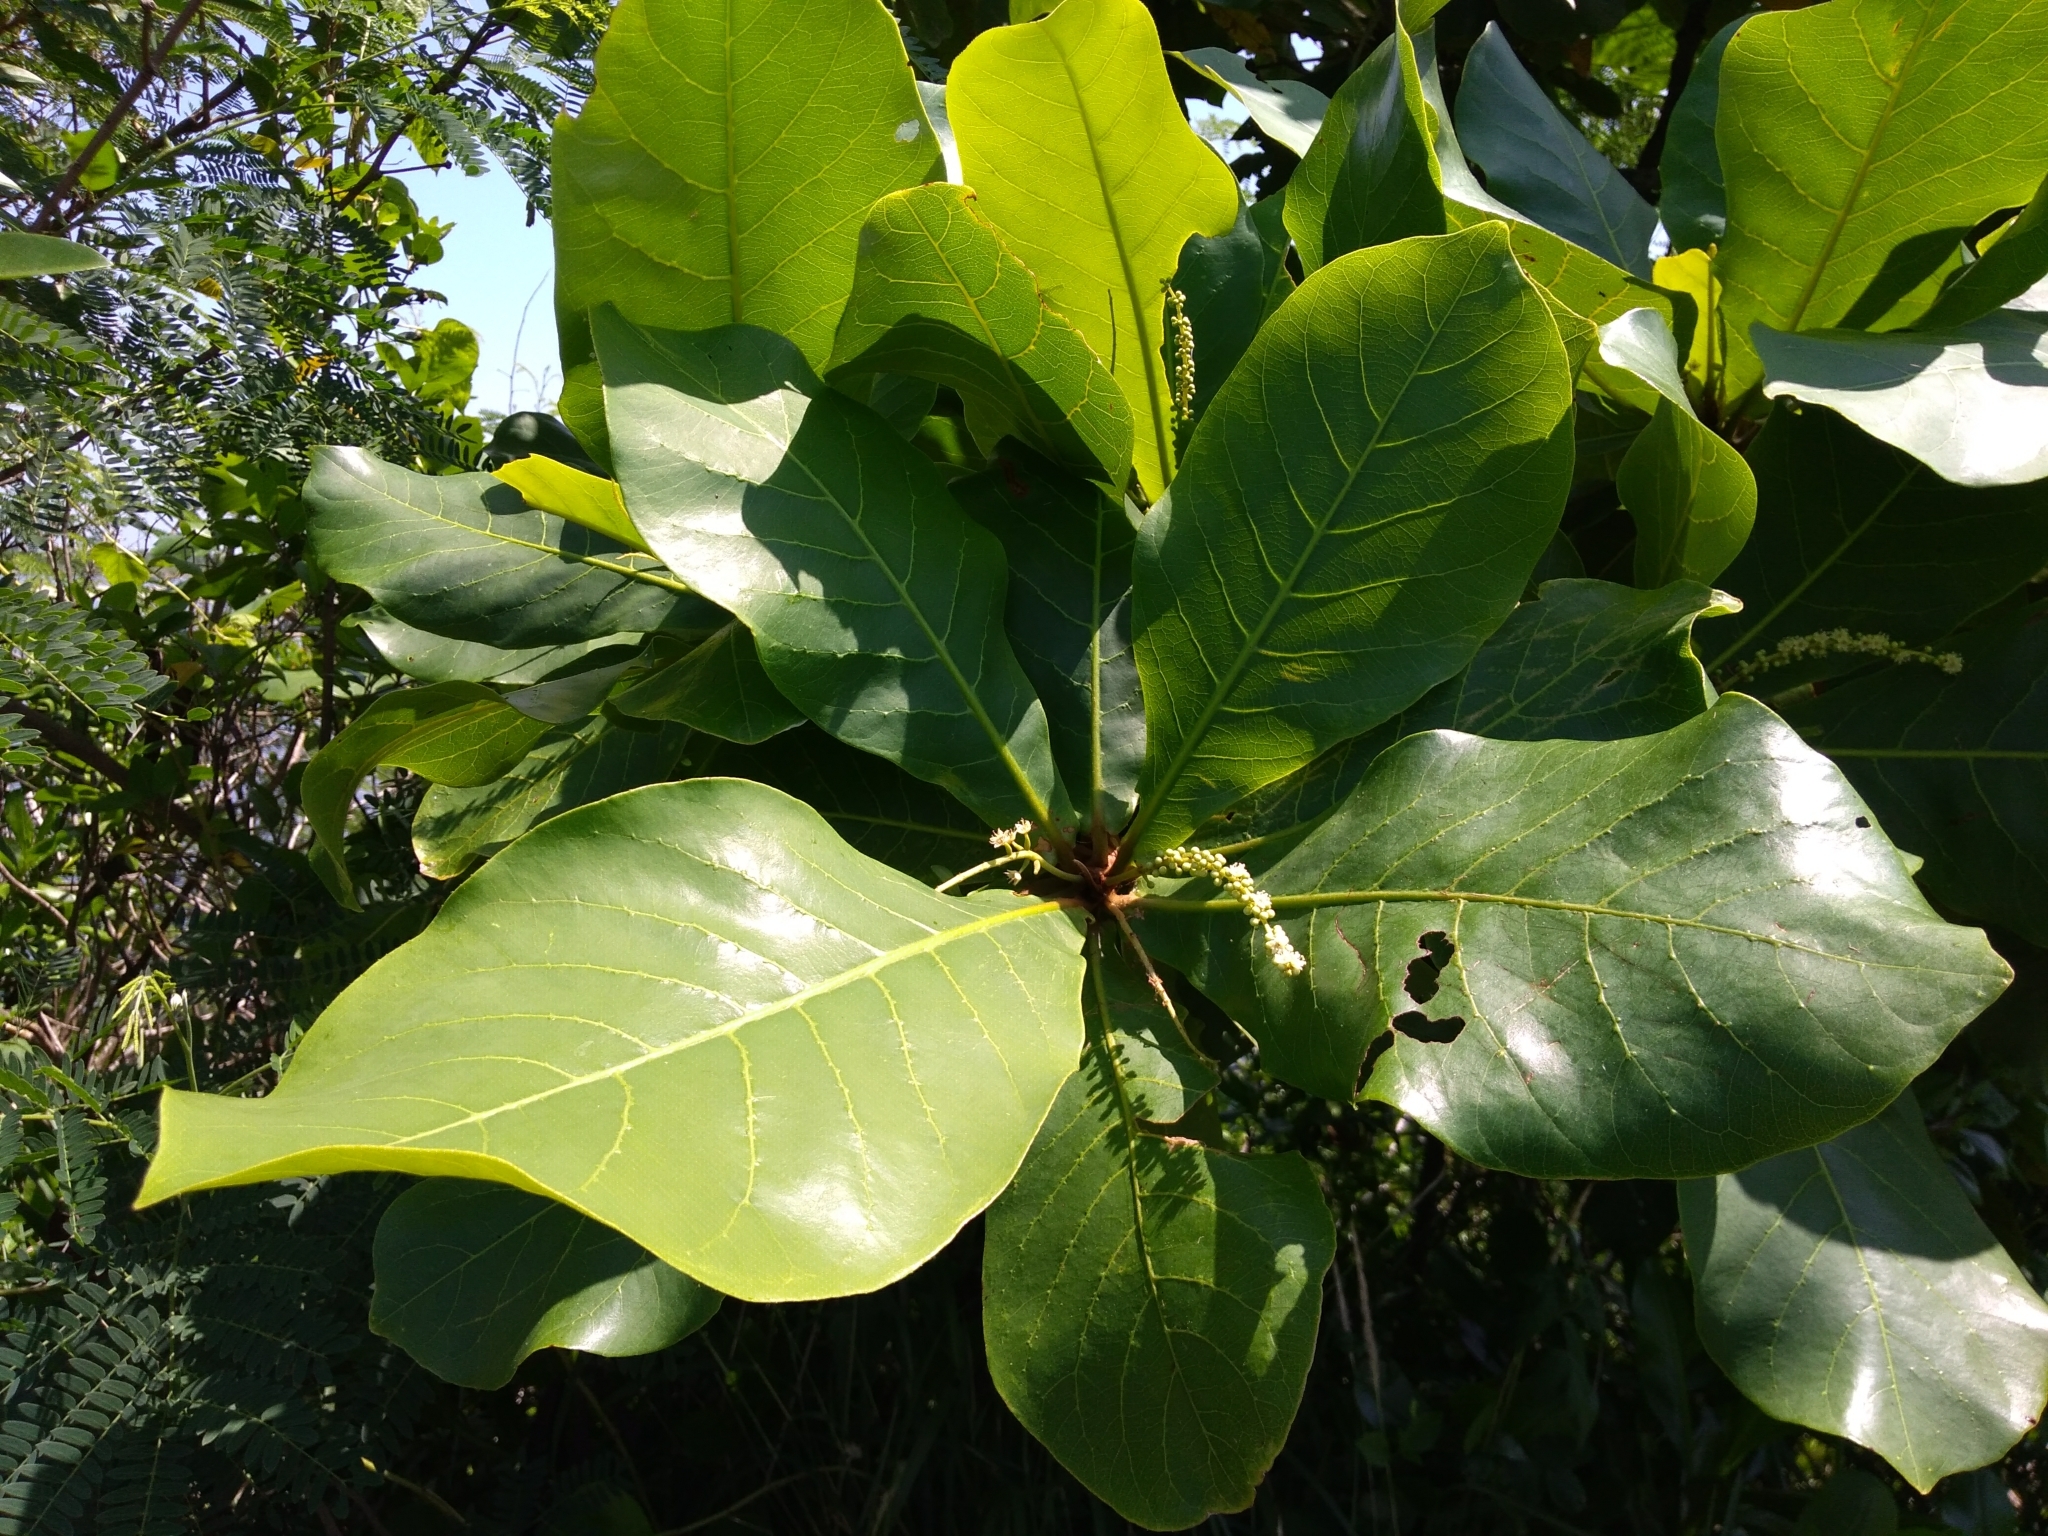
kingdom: Plantae
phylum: Tracheophyta
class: Magnoliopsida
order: Myrtales
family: Combretaceae
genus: Terminalia
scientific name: Terminalia catappa
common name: Tropical almond
